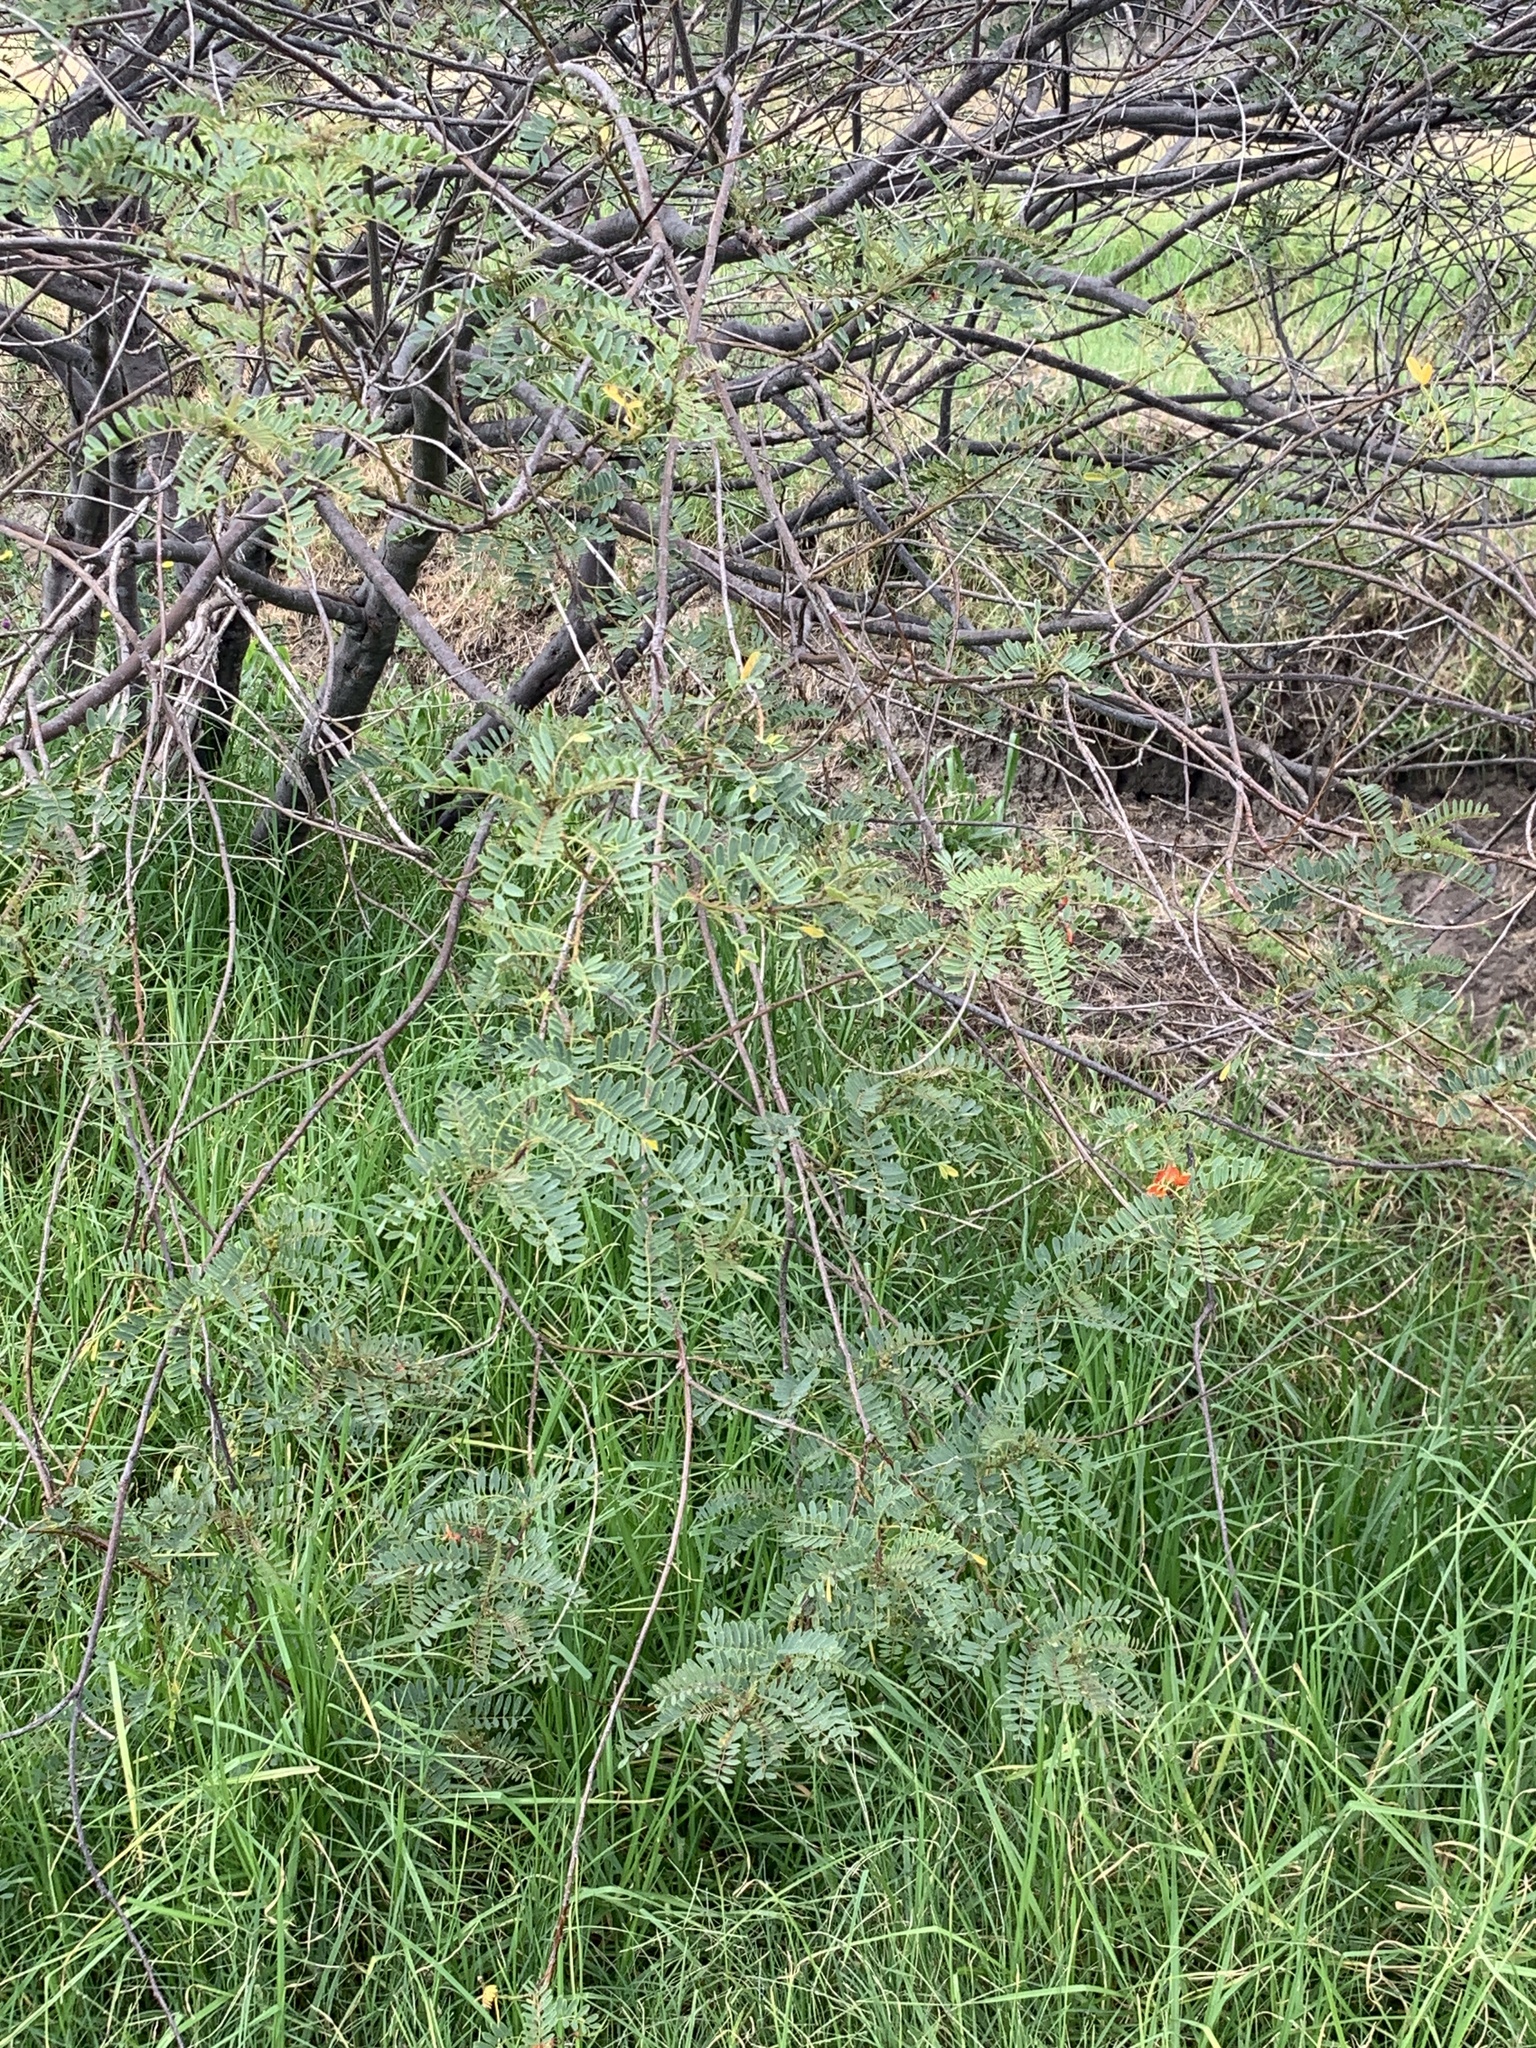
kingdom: Plantae
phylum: Tracheophyta
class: Magnoliopsida
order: Fabales
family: Fabaceae
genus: Sesbania
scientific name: Sesbania punicea
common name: Rattlebox
